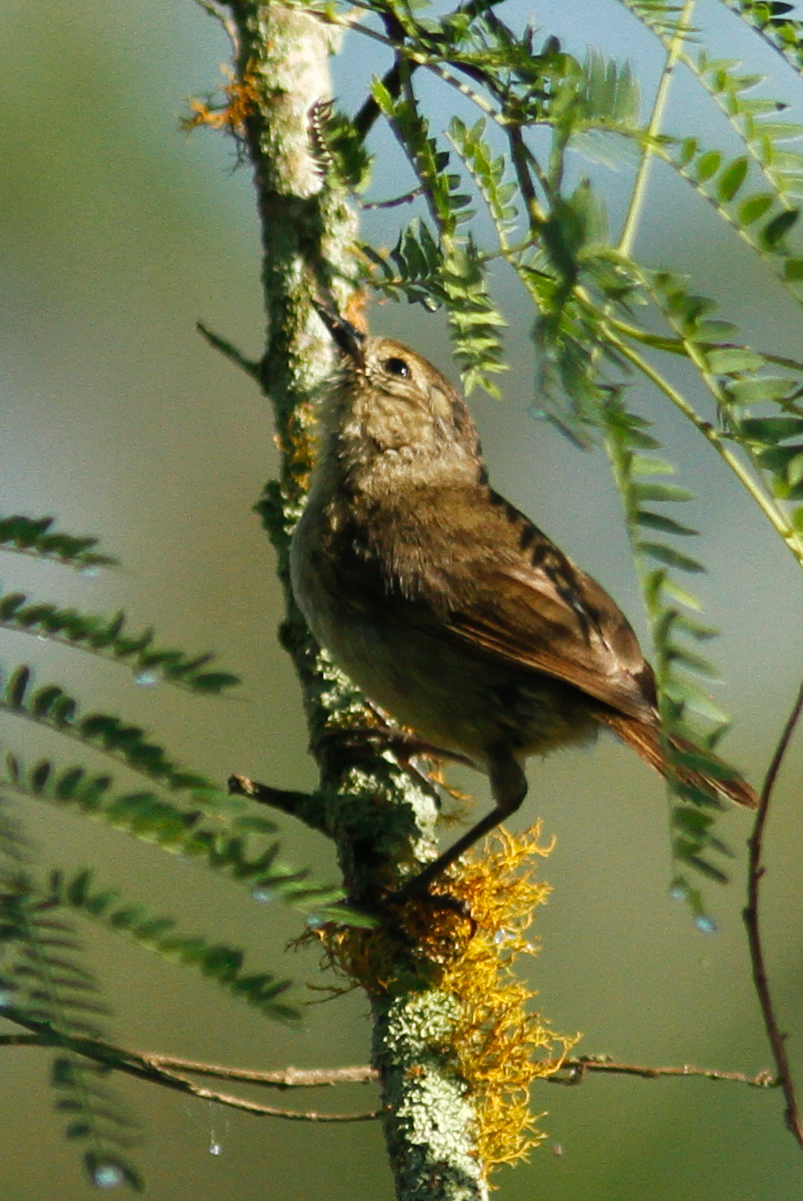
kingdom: Animalia
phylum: Chordata
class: Aves
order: Passeriformes
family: Thraupidae
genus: Certhidea
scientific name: Certhidea fusca
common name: Grey warbler-finch
